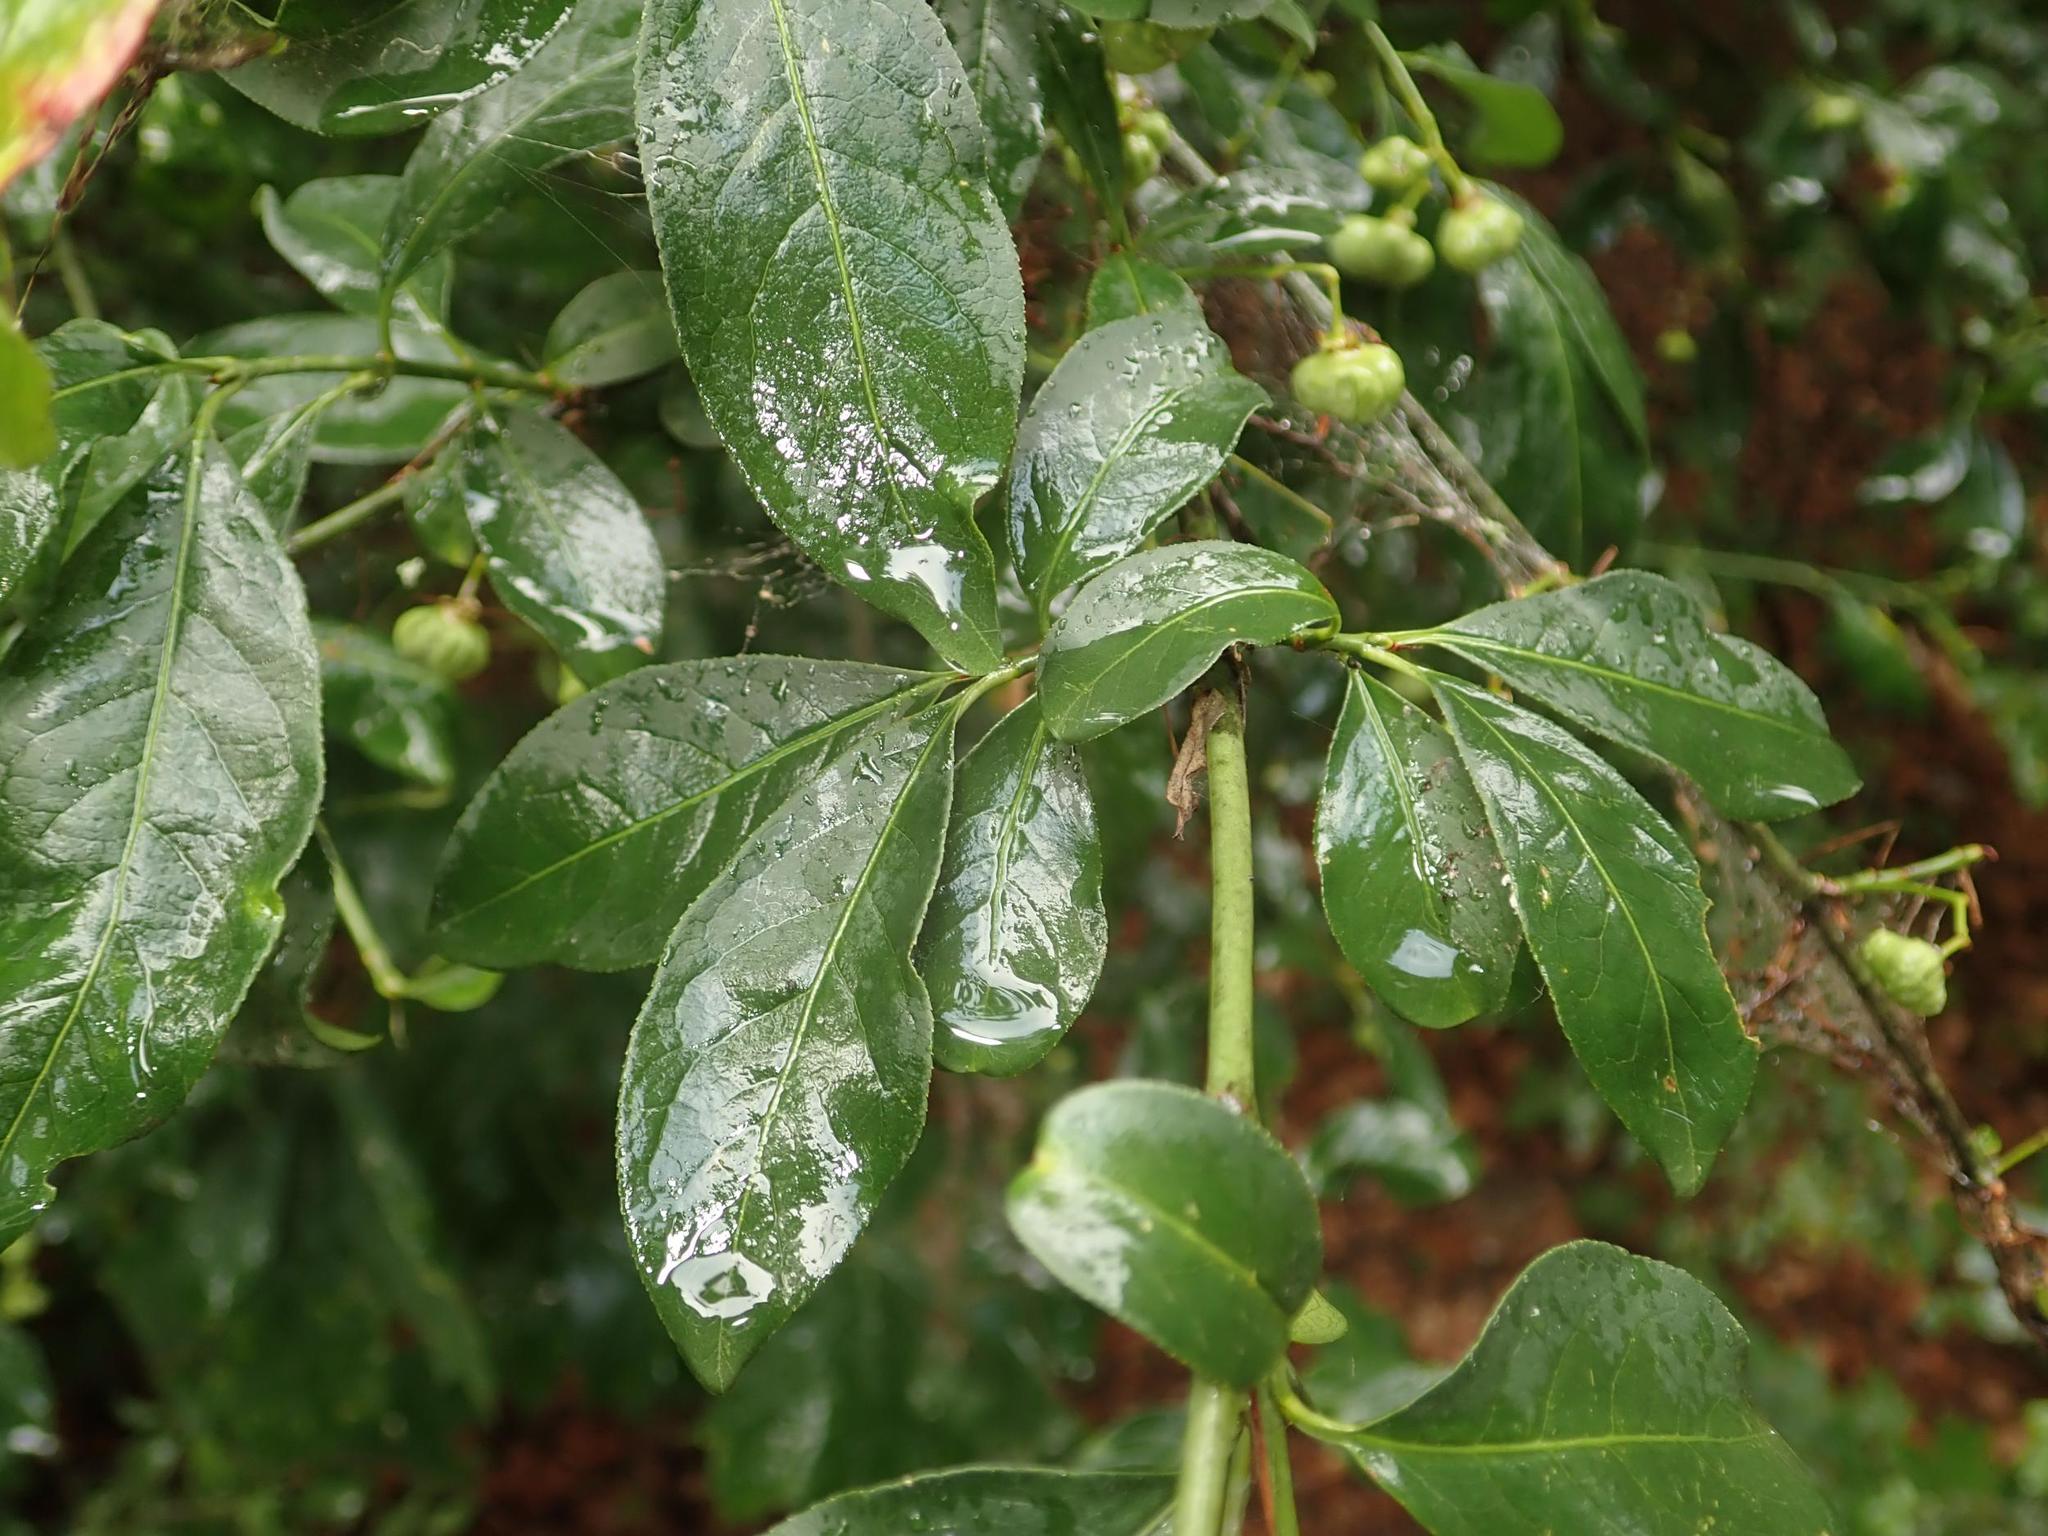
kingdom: Plantae
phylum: Tracheophyta
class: Magnoliopsida
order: Celastrales
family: Celastraceae
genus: Euonymus
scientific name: Euonymus europaeus
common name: Spindle
